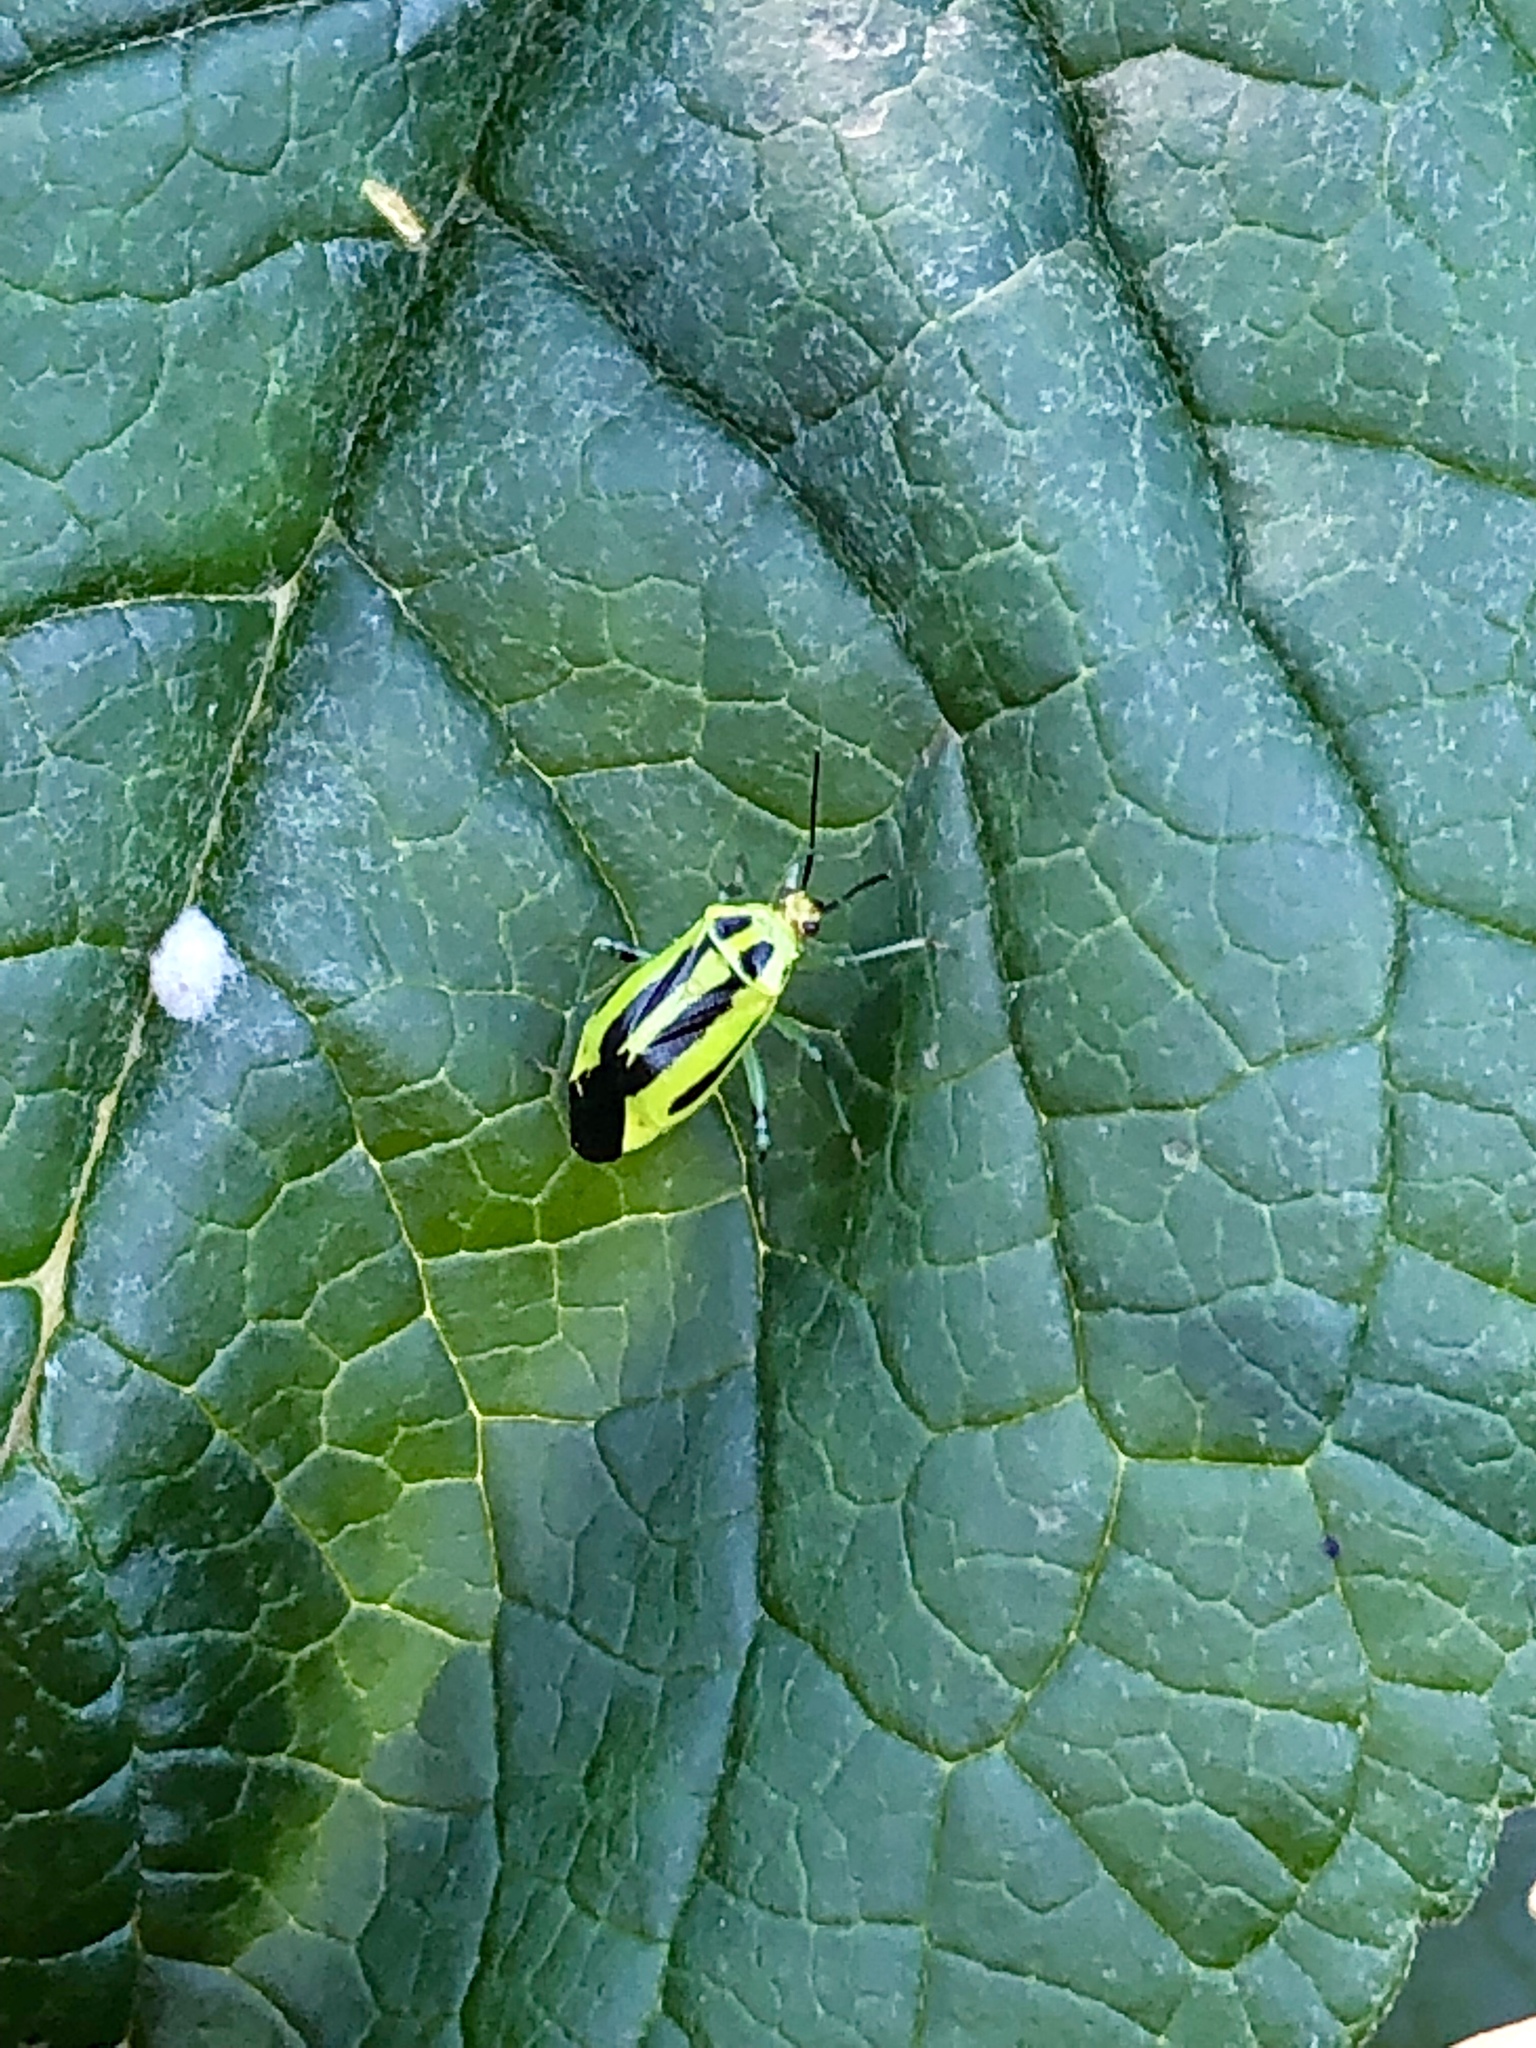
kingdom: Animalia
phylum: Arthropoda
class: Insecta
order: Hemiptera
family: Miridae
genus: Poecilocapsus
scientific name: Poecilocapsus lineatus
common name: Four-lined plant bug
